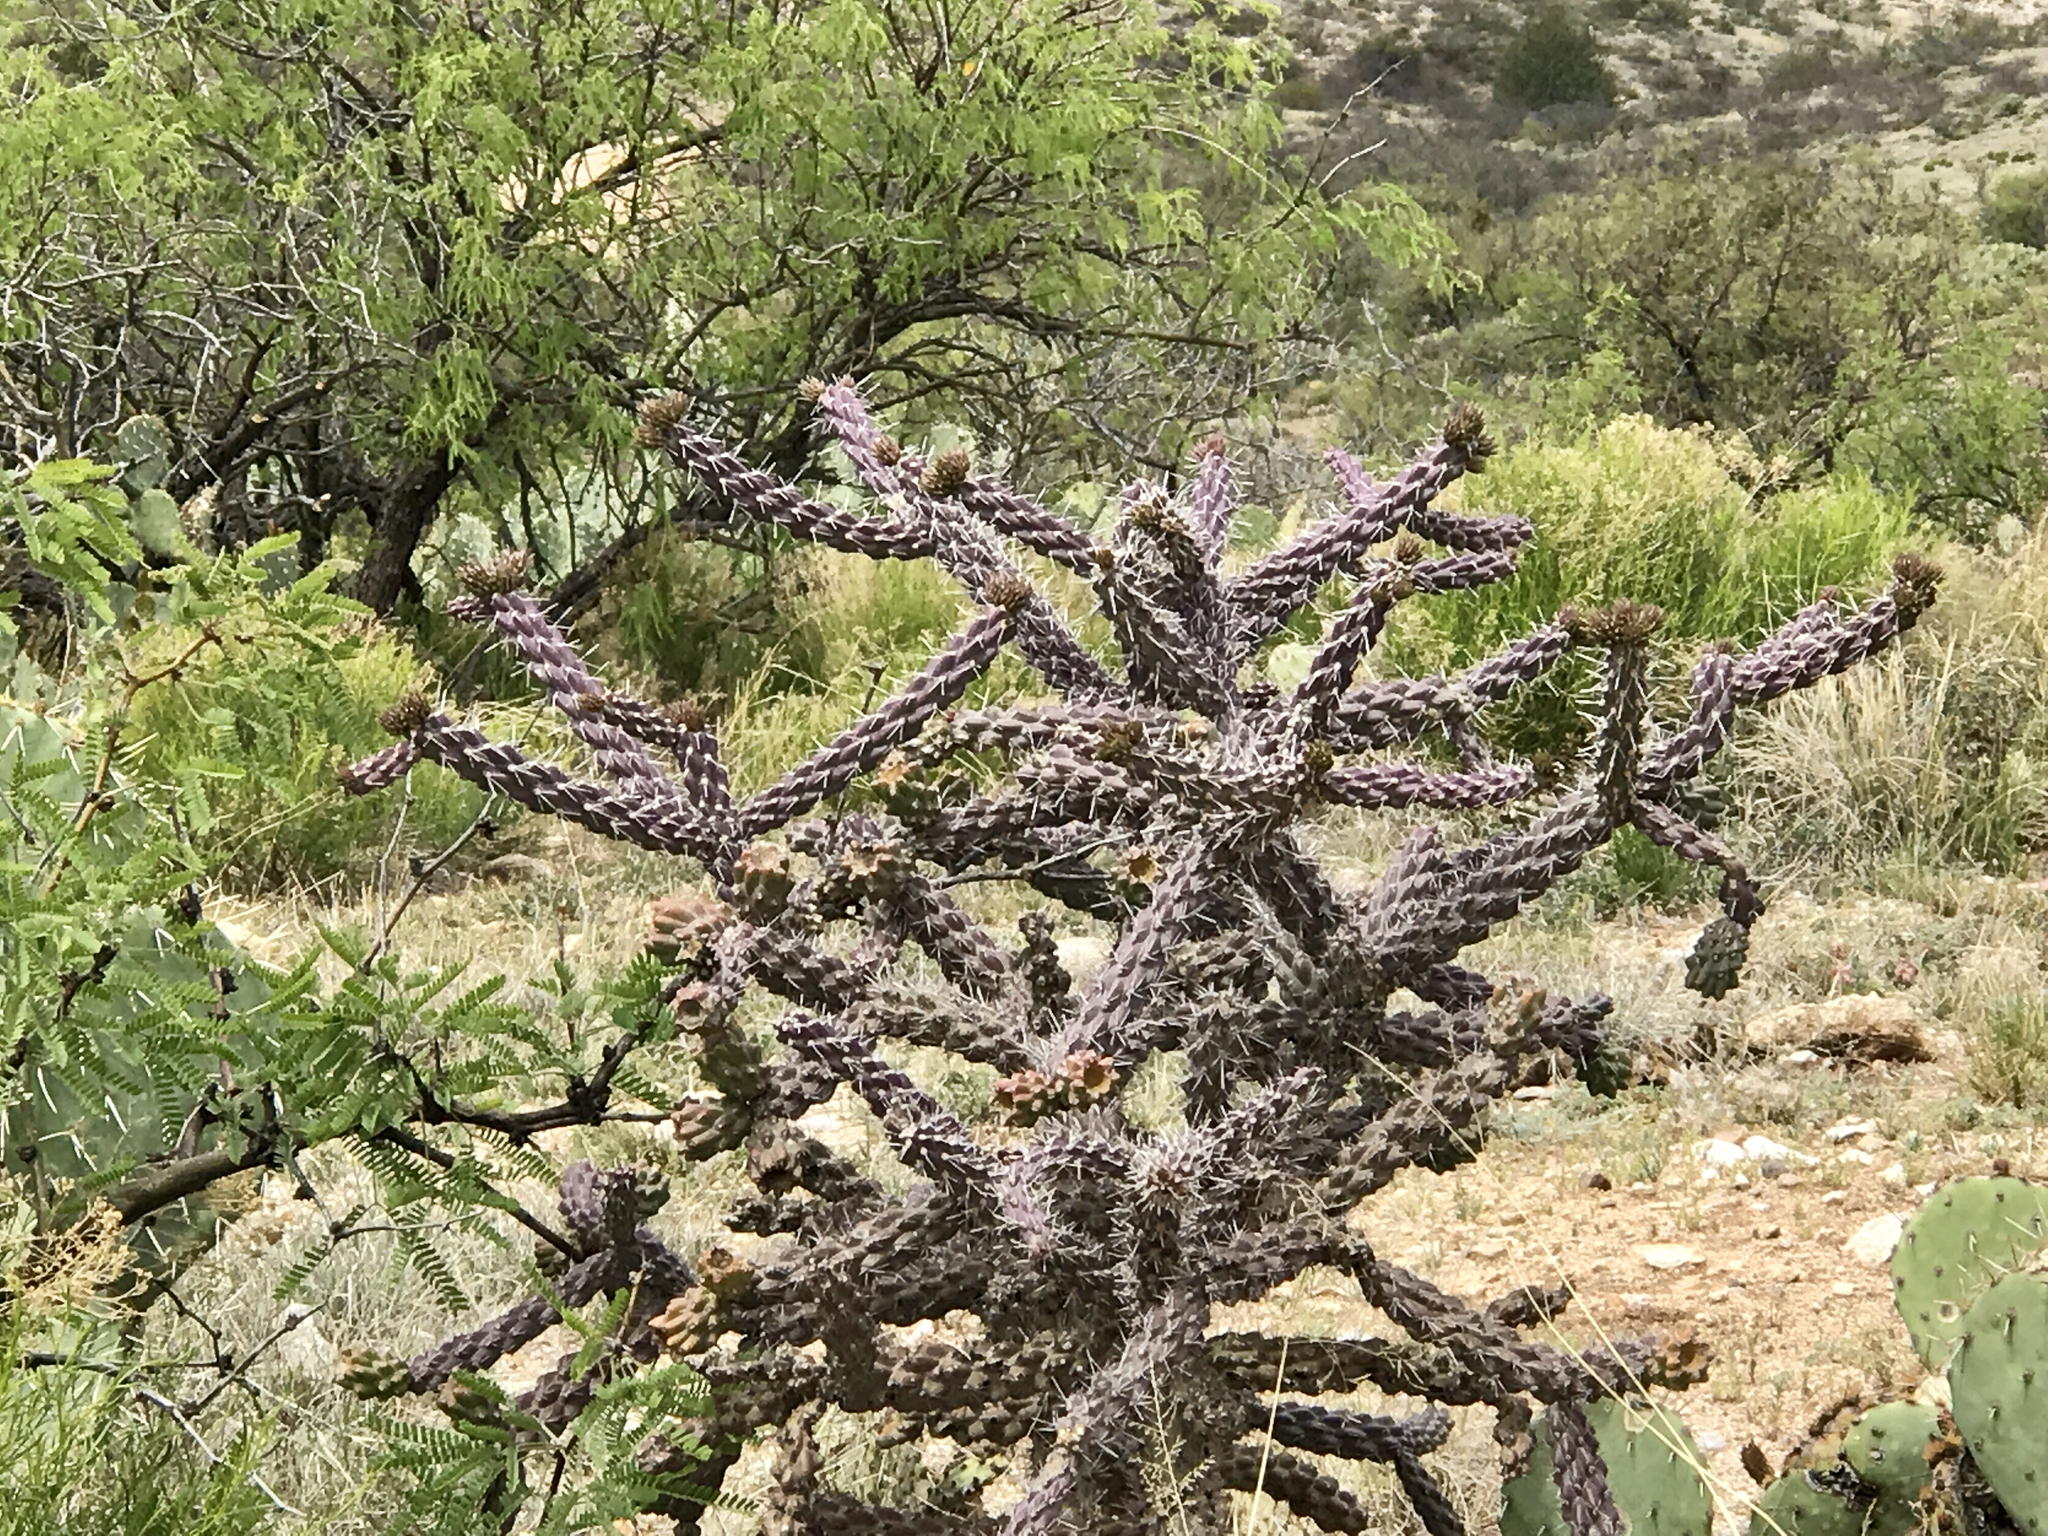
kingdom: Plantae
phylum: Tracheophyta
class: Magnoliopsida
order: Caryophyllales
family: Cactaceae
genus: Cylindropuntia
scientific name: Cylindropuntia thurberi
